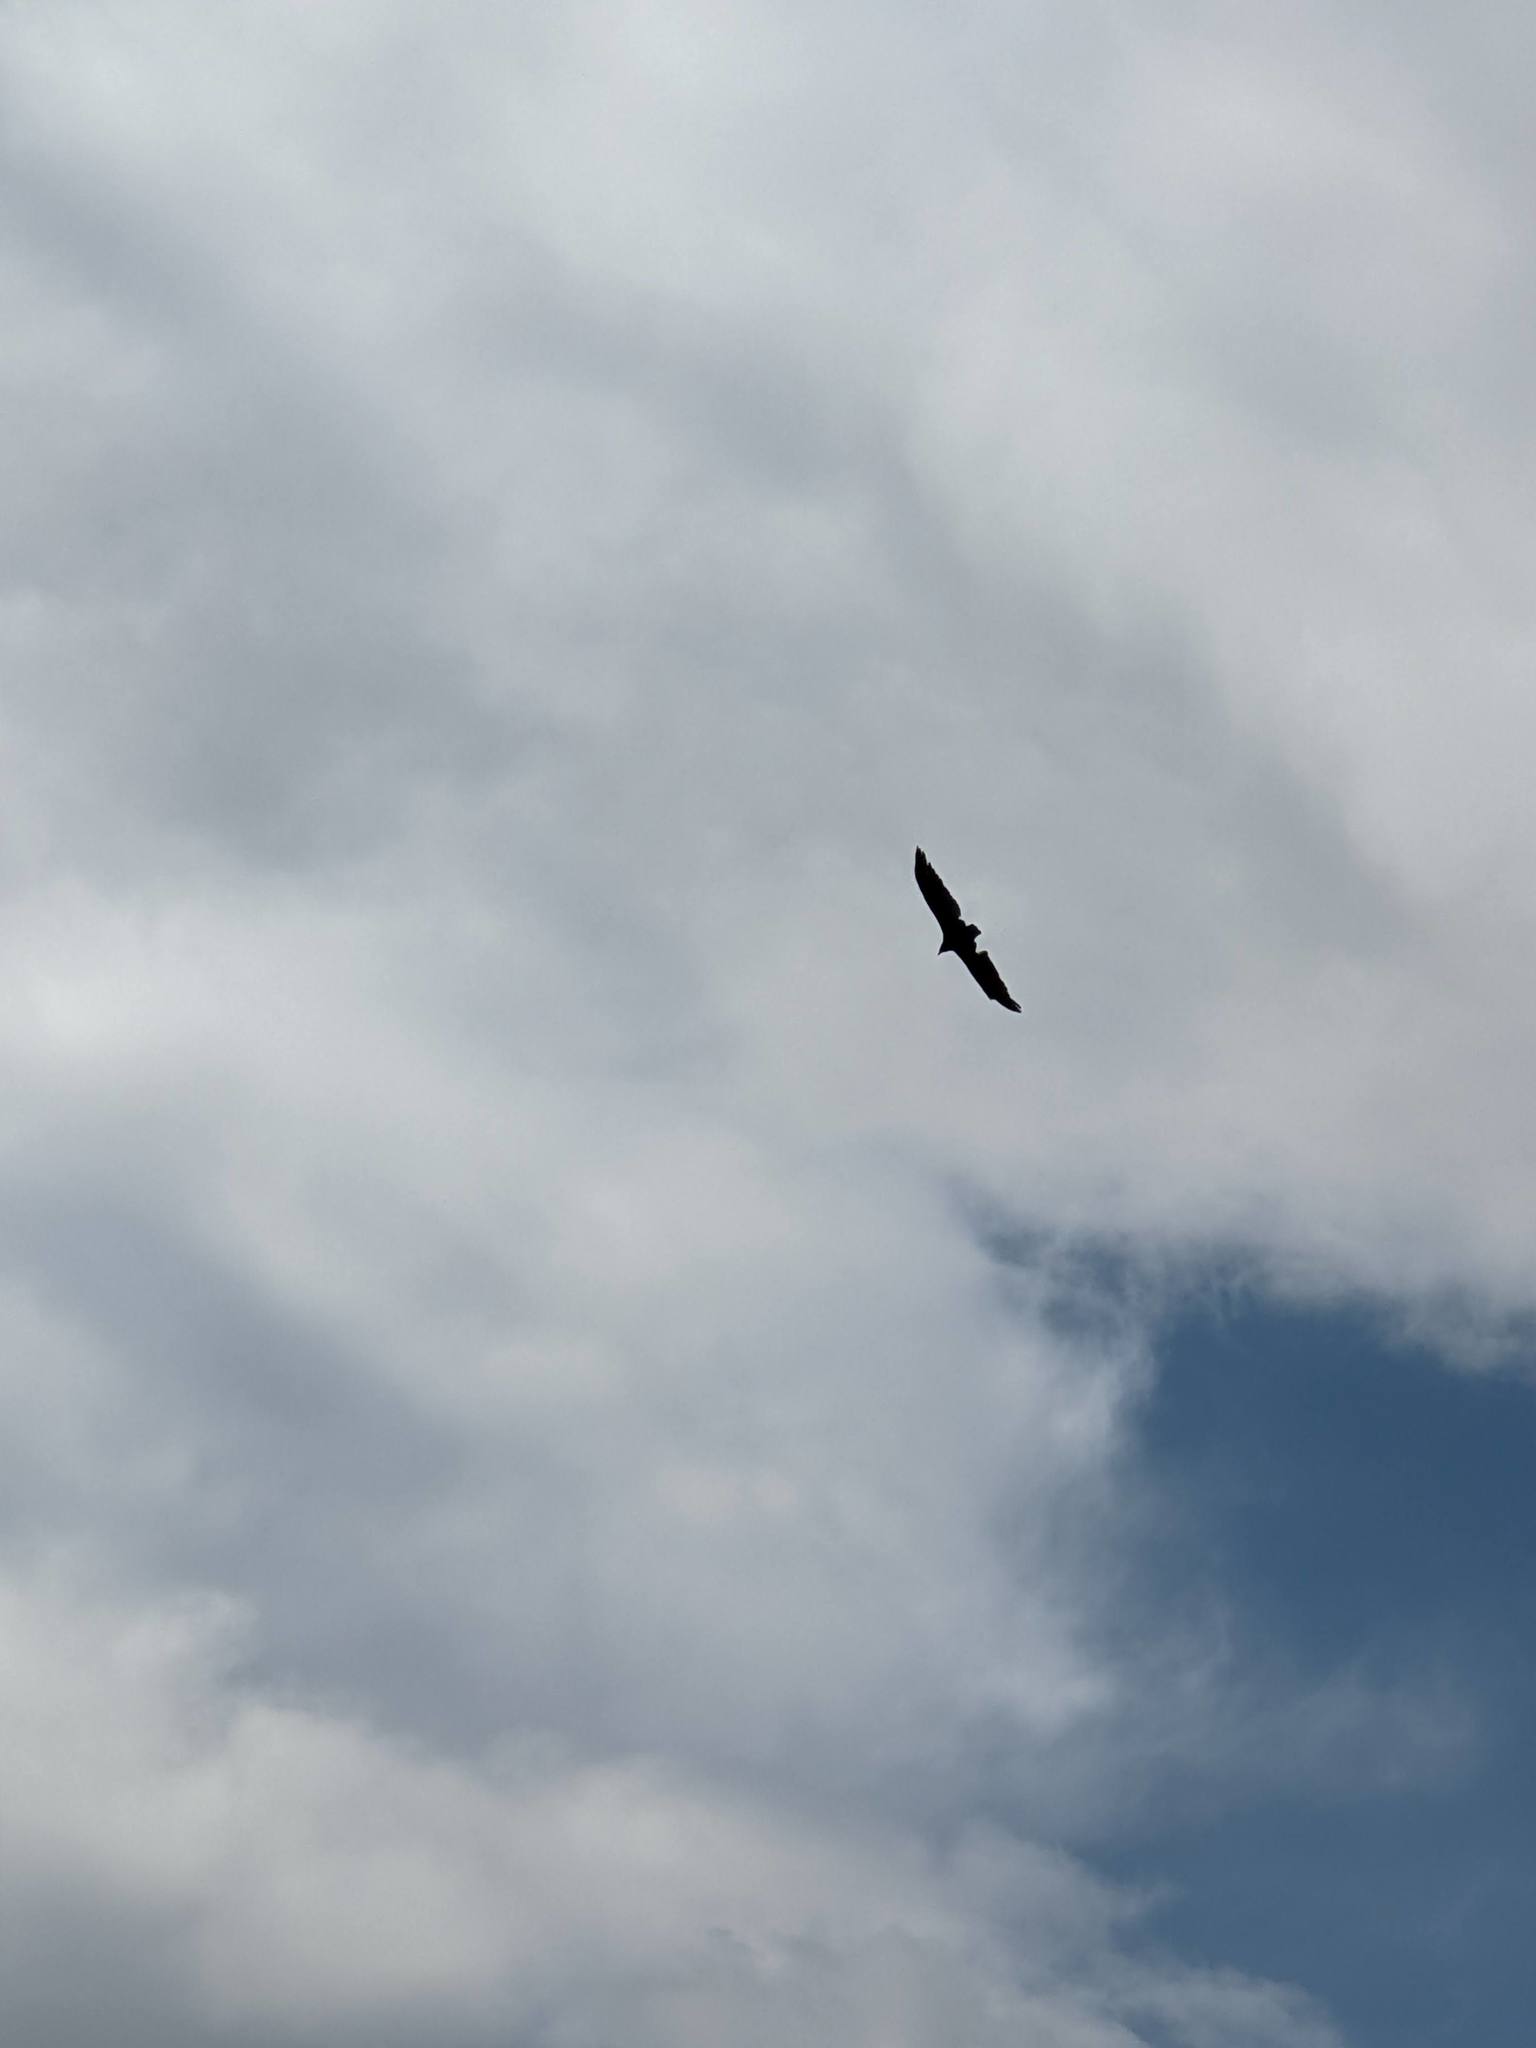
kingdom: Animalia
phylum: Chordata
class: Aves
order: Accipitriformes
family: Cathartidae
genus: Cathartes
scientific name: Cathartes aura
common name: Turkey vulture
